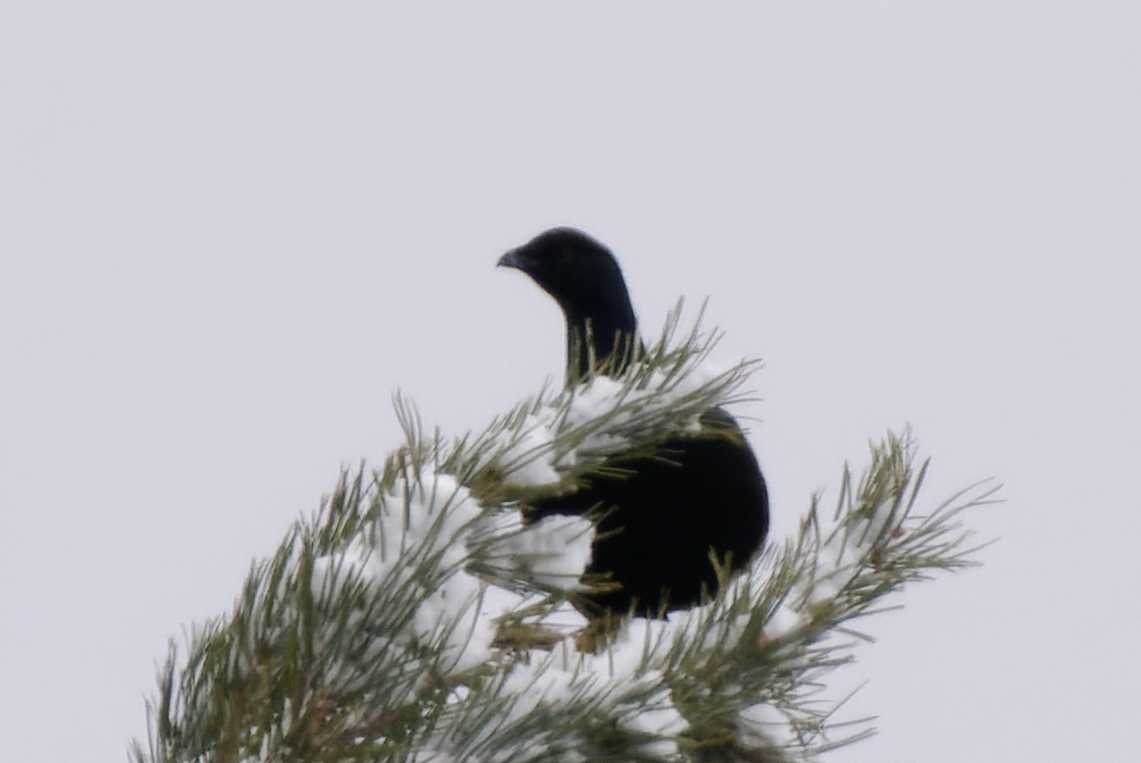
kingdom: Animalia
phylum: Chordata
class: Aves
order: Galliformes
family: Phasianidae
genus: Lyrurus
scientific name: Lyrurus tetrix
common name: Black grouse
